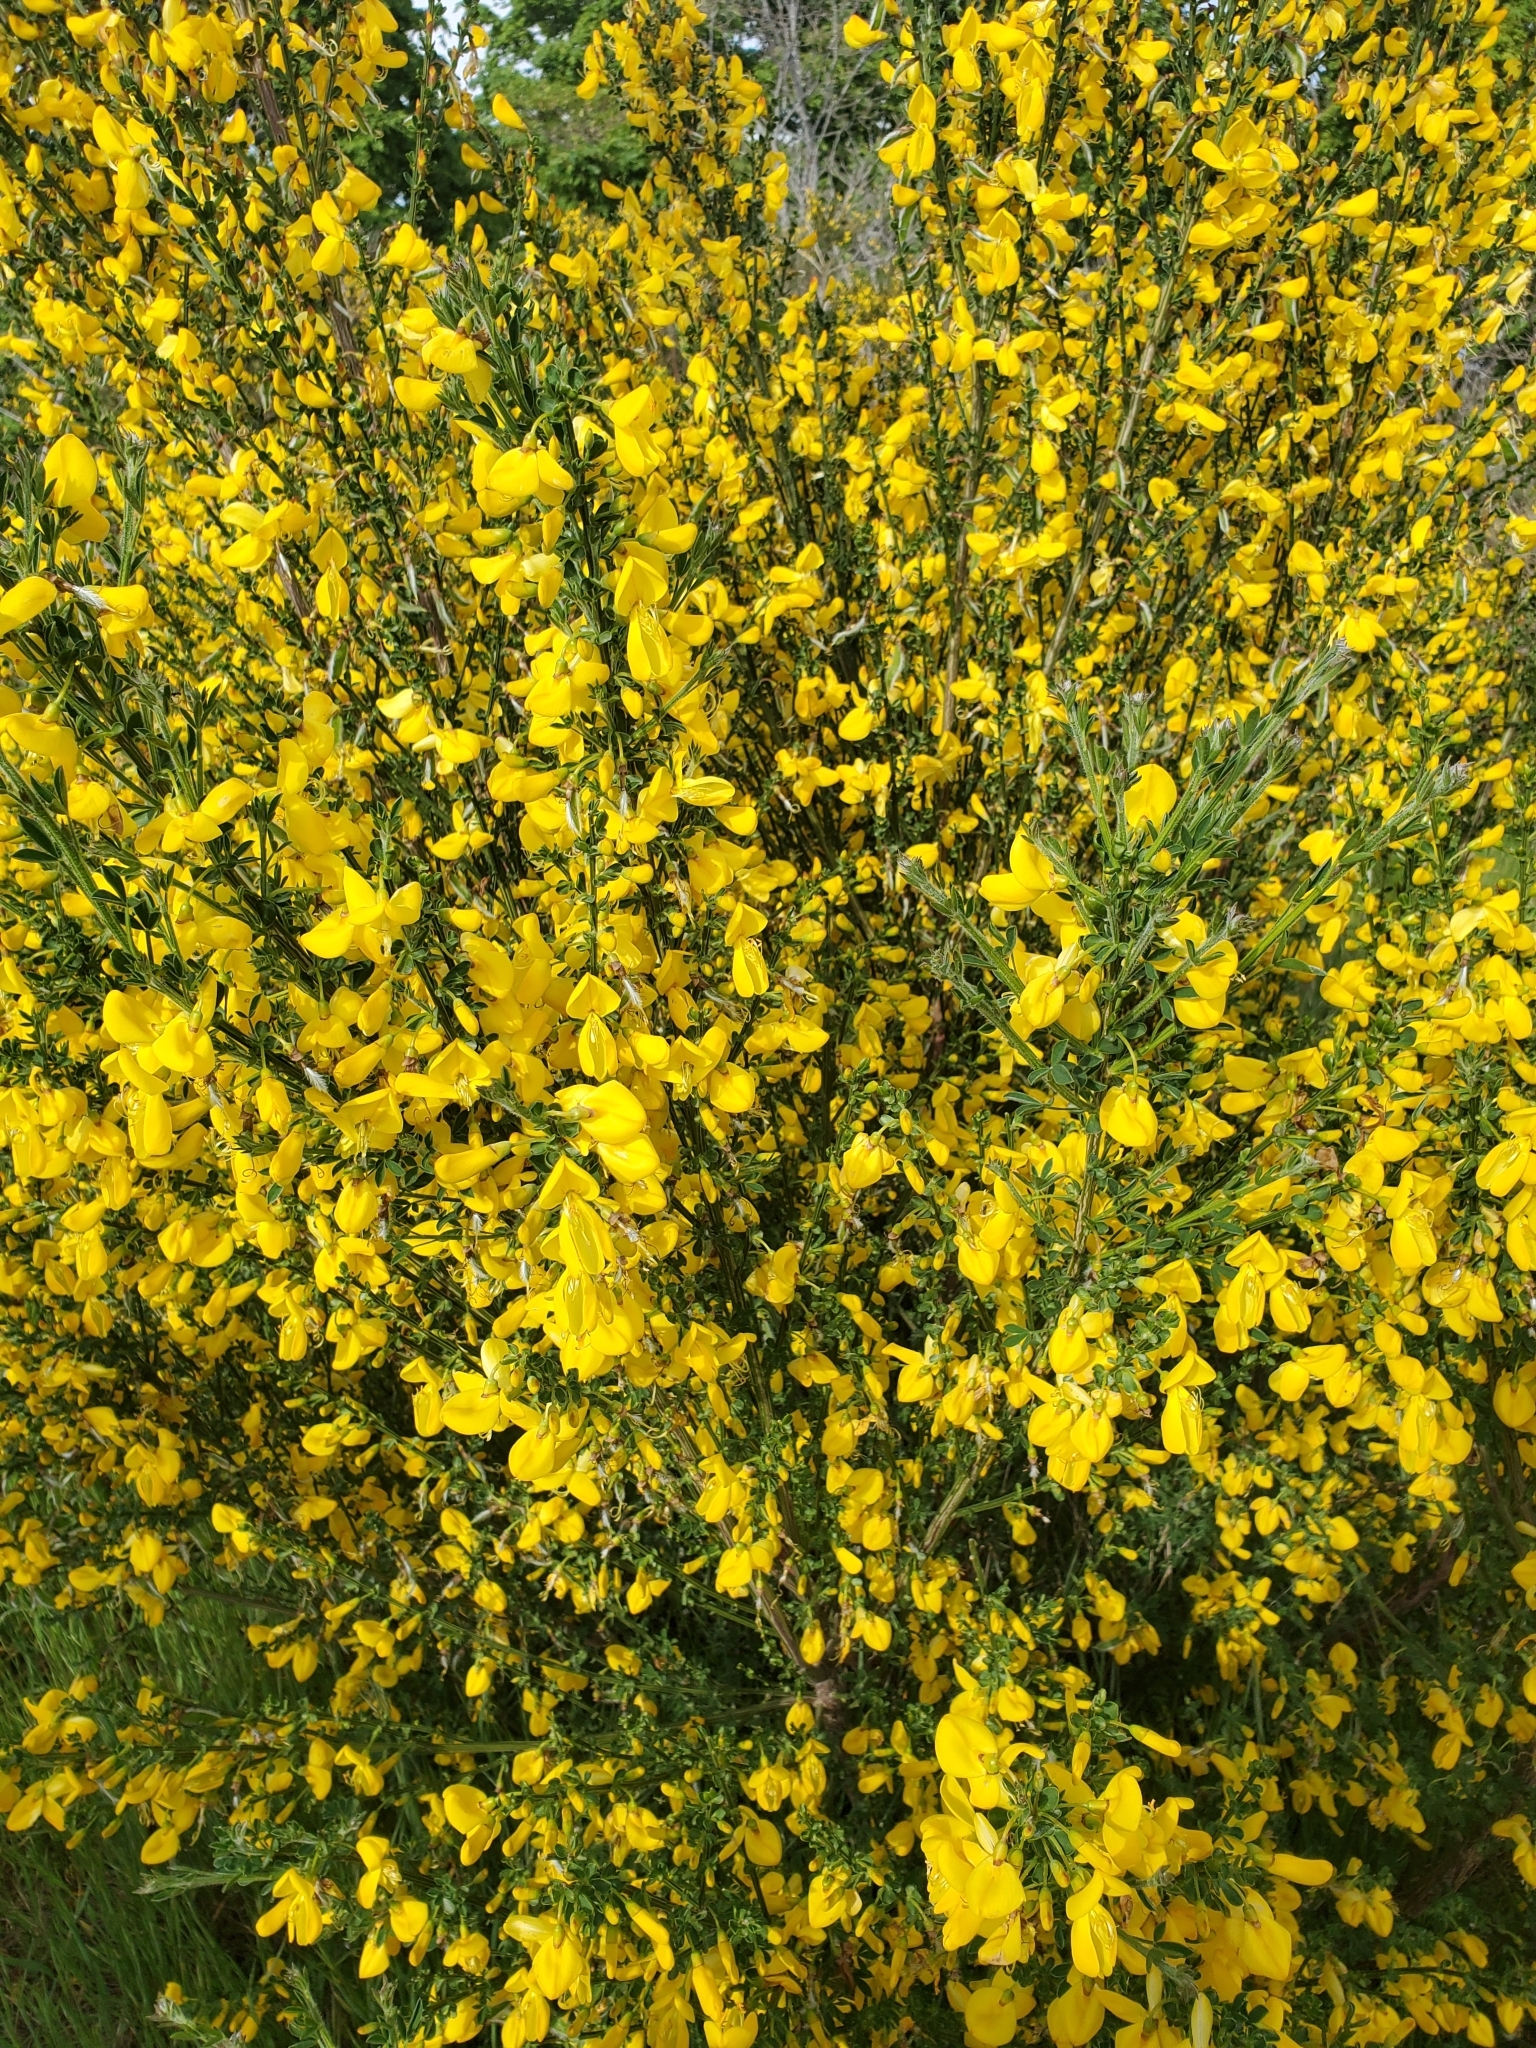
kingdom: Plantae
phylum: Tracheophyta
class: Magnoliopsida
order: Fabales
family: Fabaceae
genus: Cytisus
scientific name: Cytisus scoparius
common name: Scotch broom
